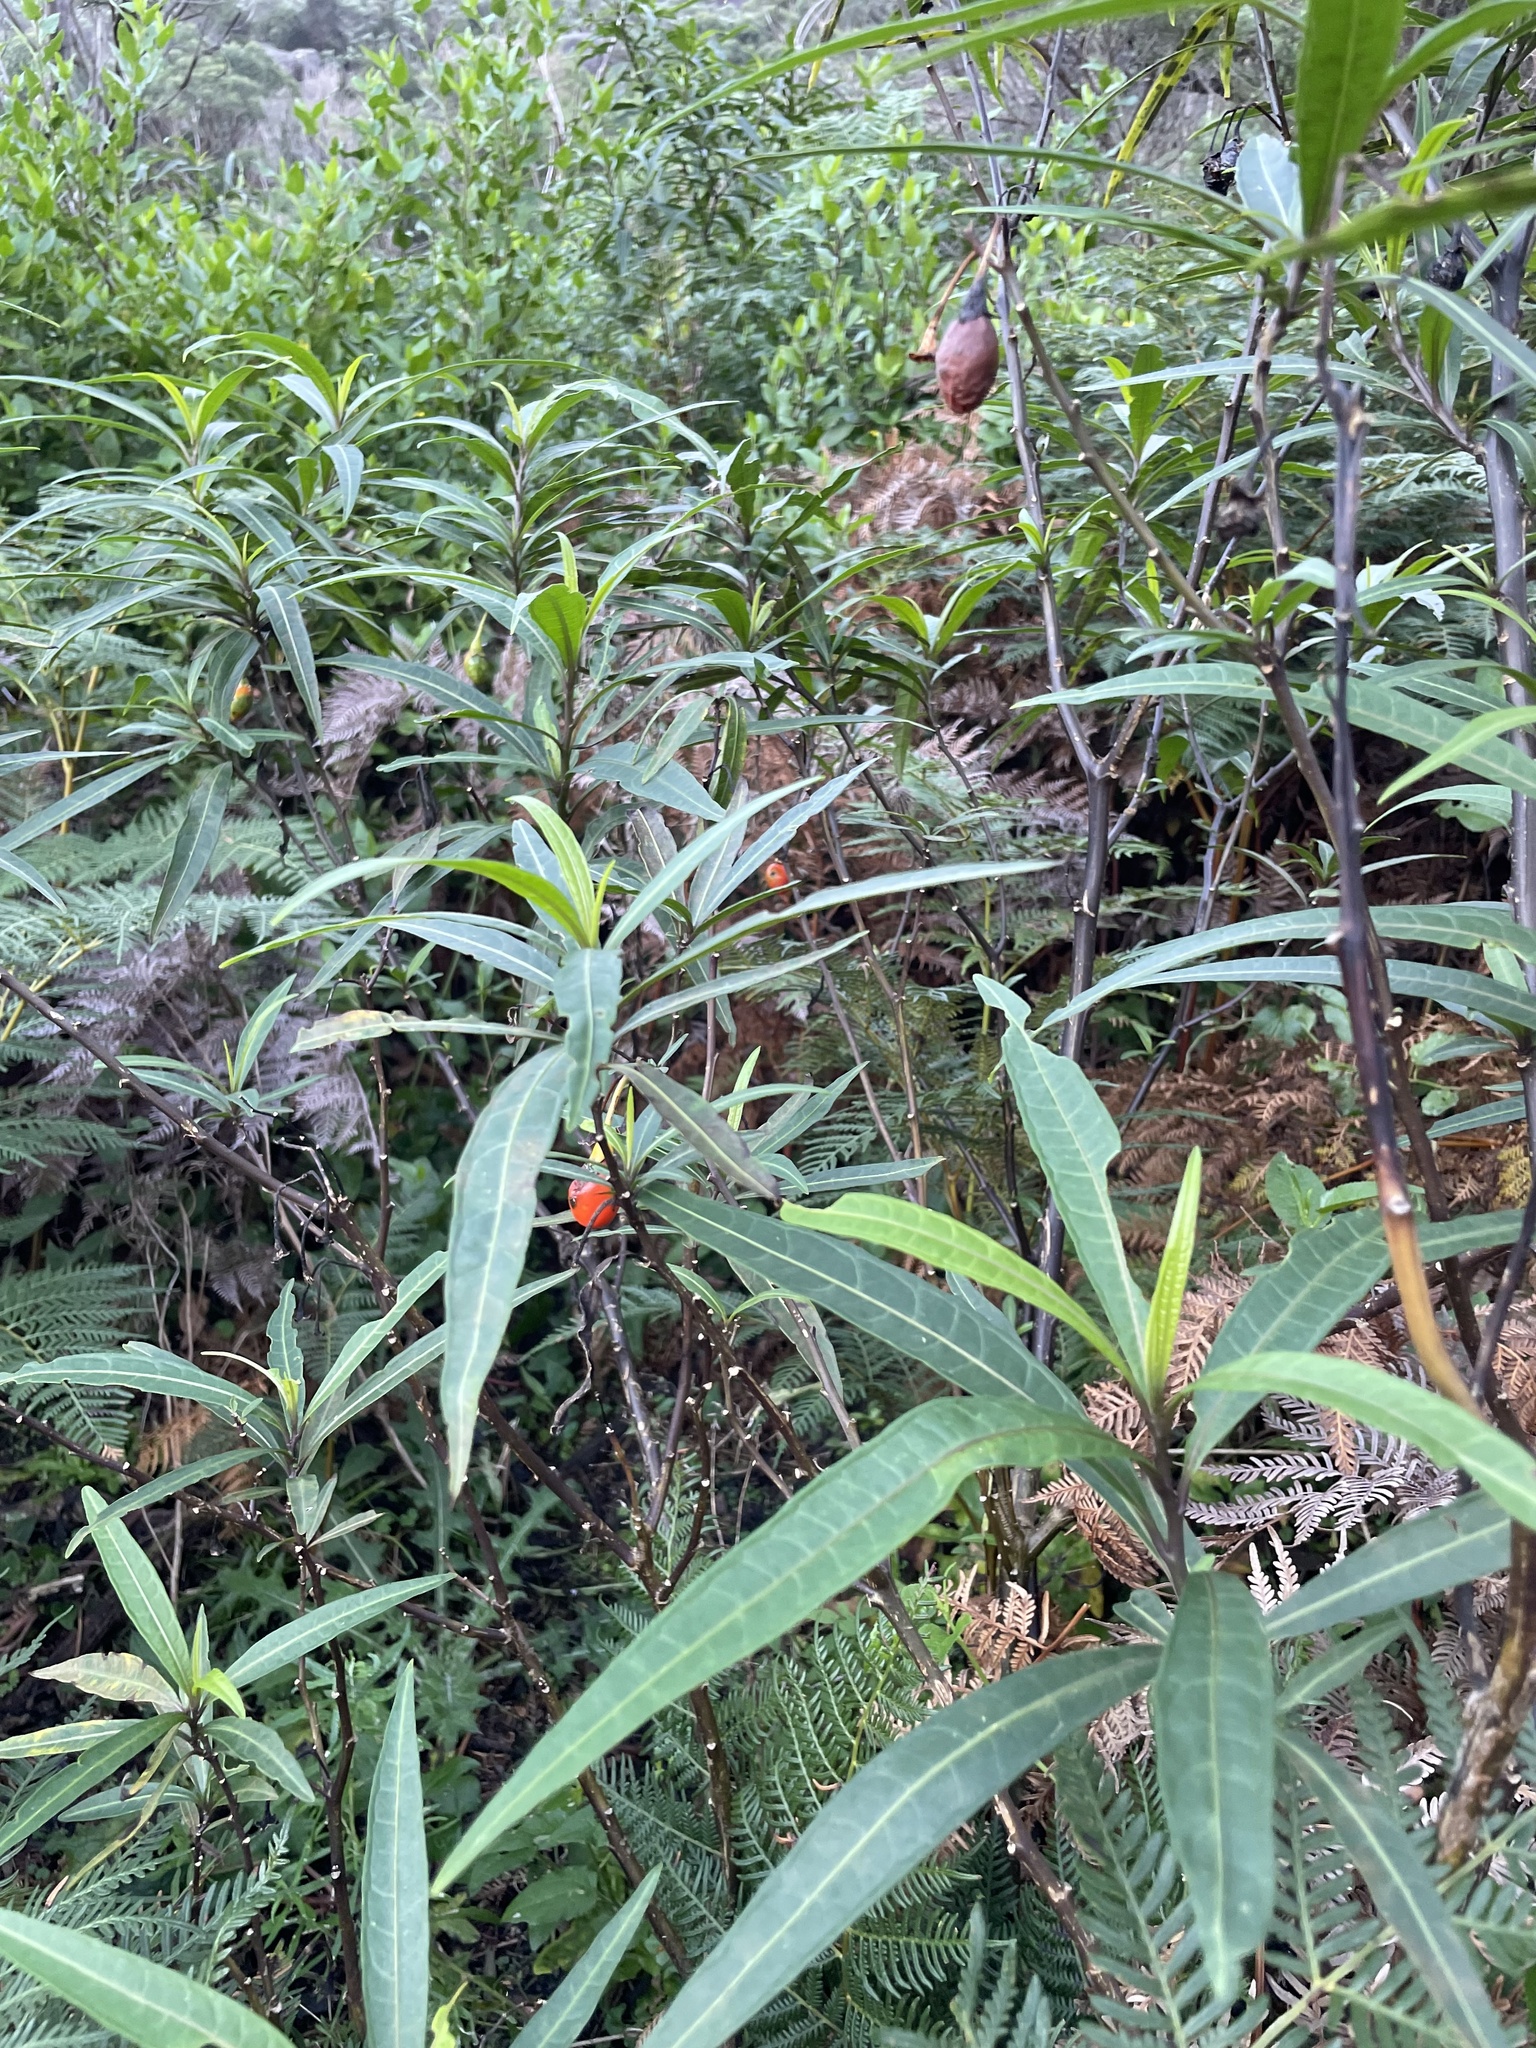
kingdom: Plantae
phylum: Tracheophyta
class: Magnoliopsida
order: Solanales
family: Solanaceae
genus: Solanum
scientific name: Solanum aviculare
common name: New zealand nightshade
